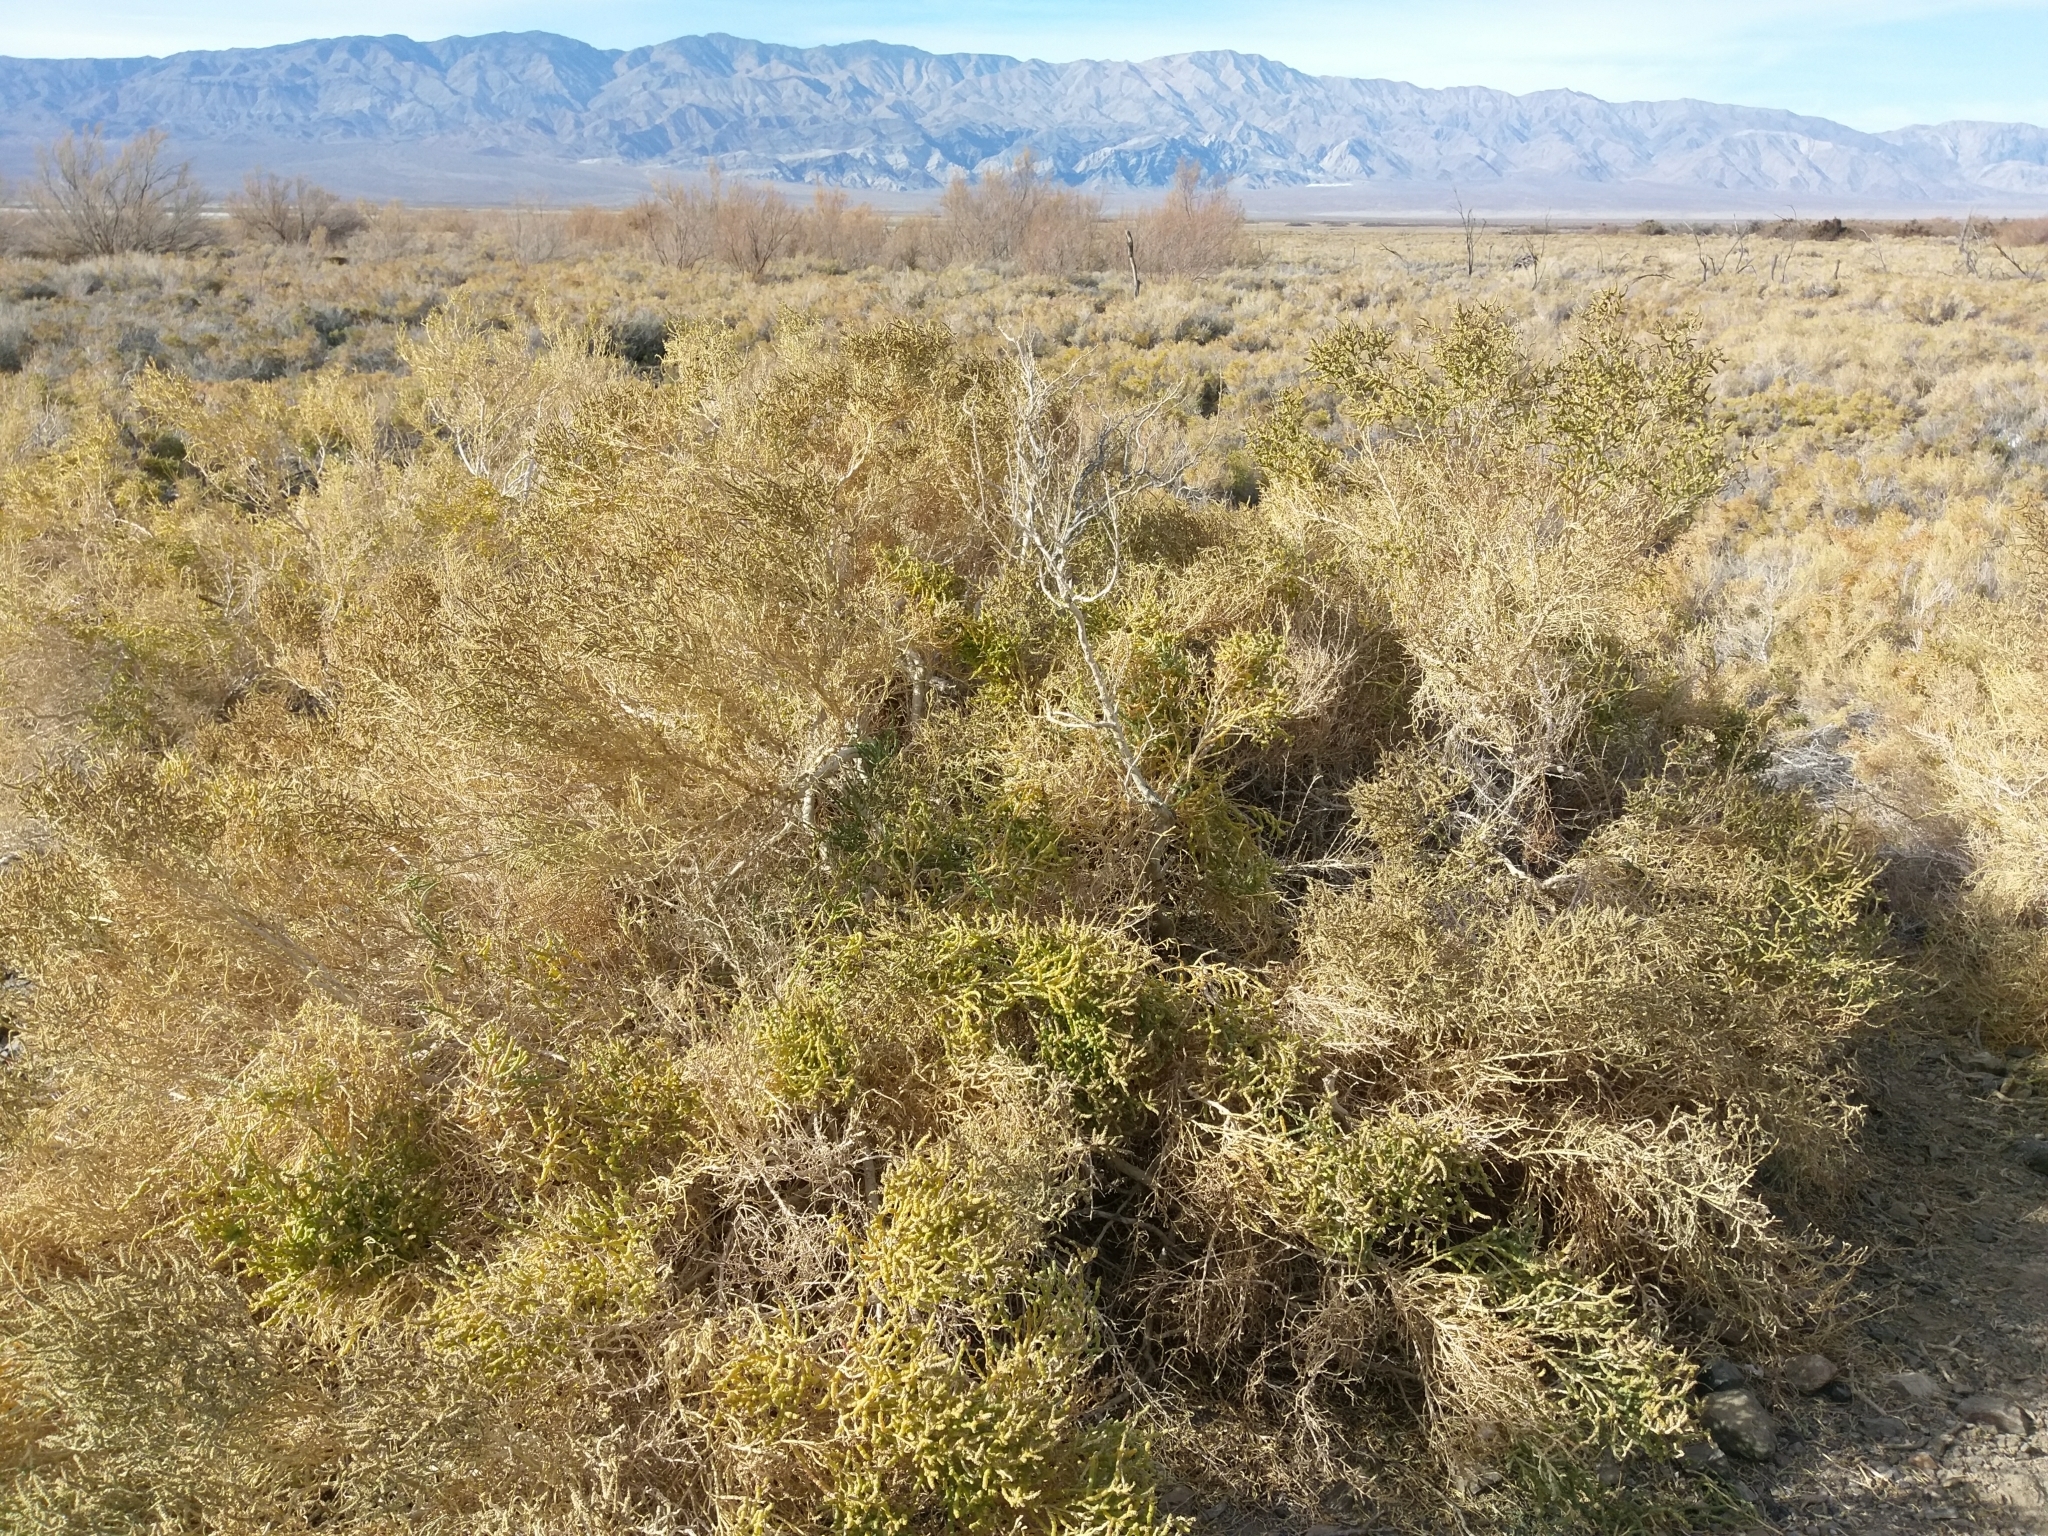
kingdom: Plantae
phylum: Tracheophyta
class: Magnoliopsida
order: Caryophyllales
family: Amaranthaceae
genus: Allenrolfea
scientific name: Allenrolfea occidentalis
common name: Iodine-bush
